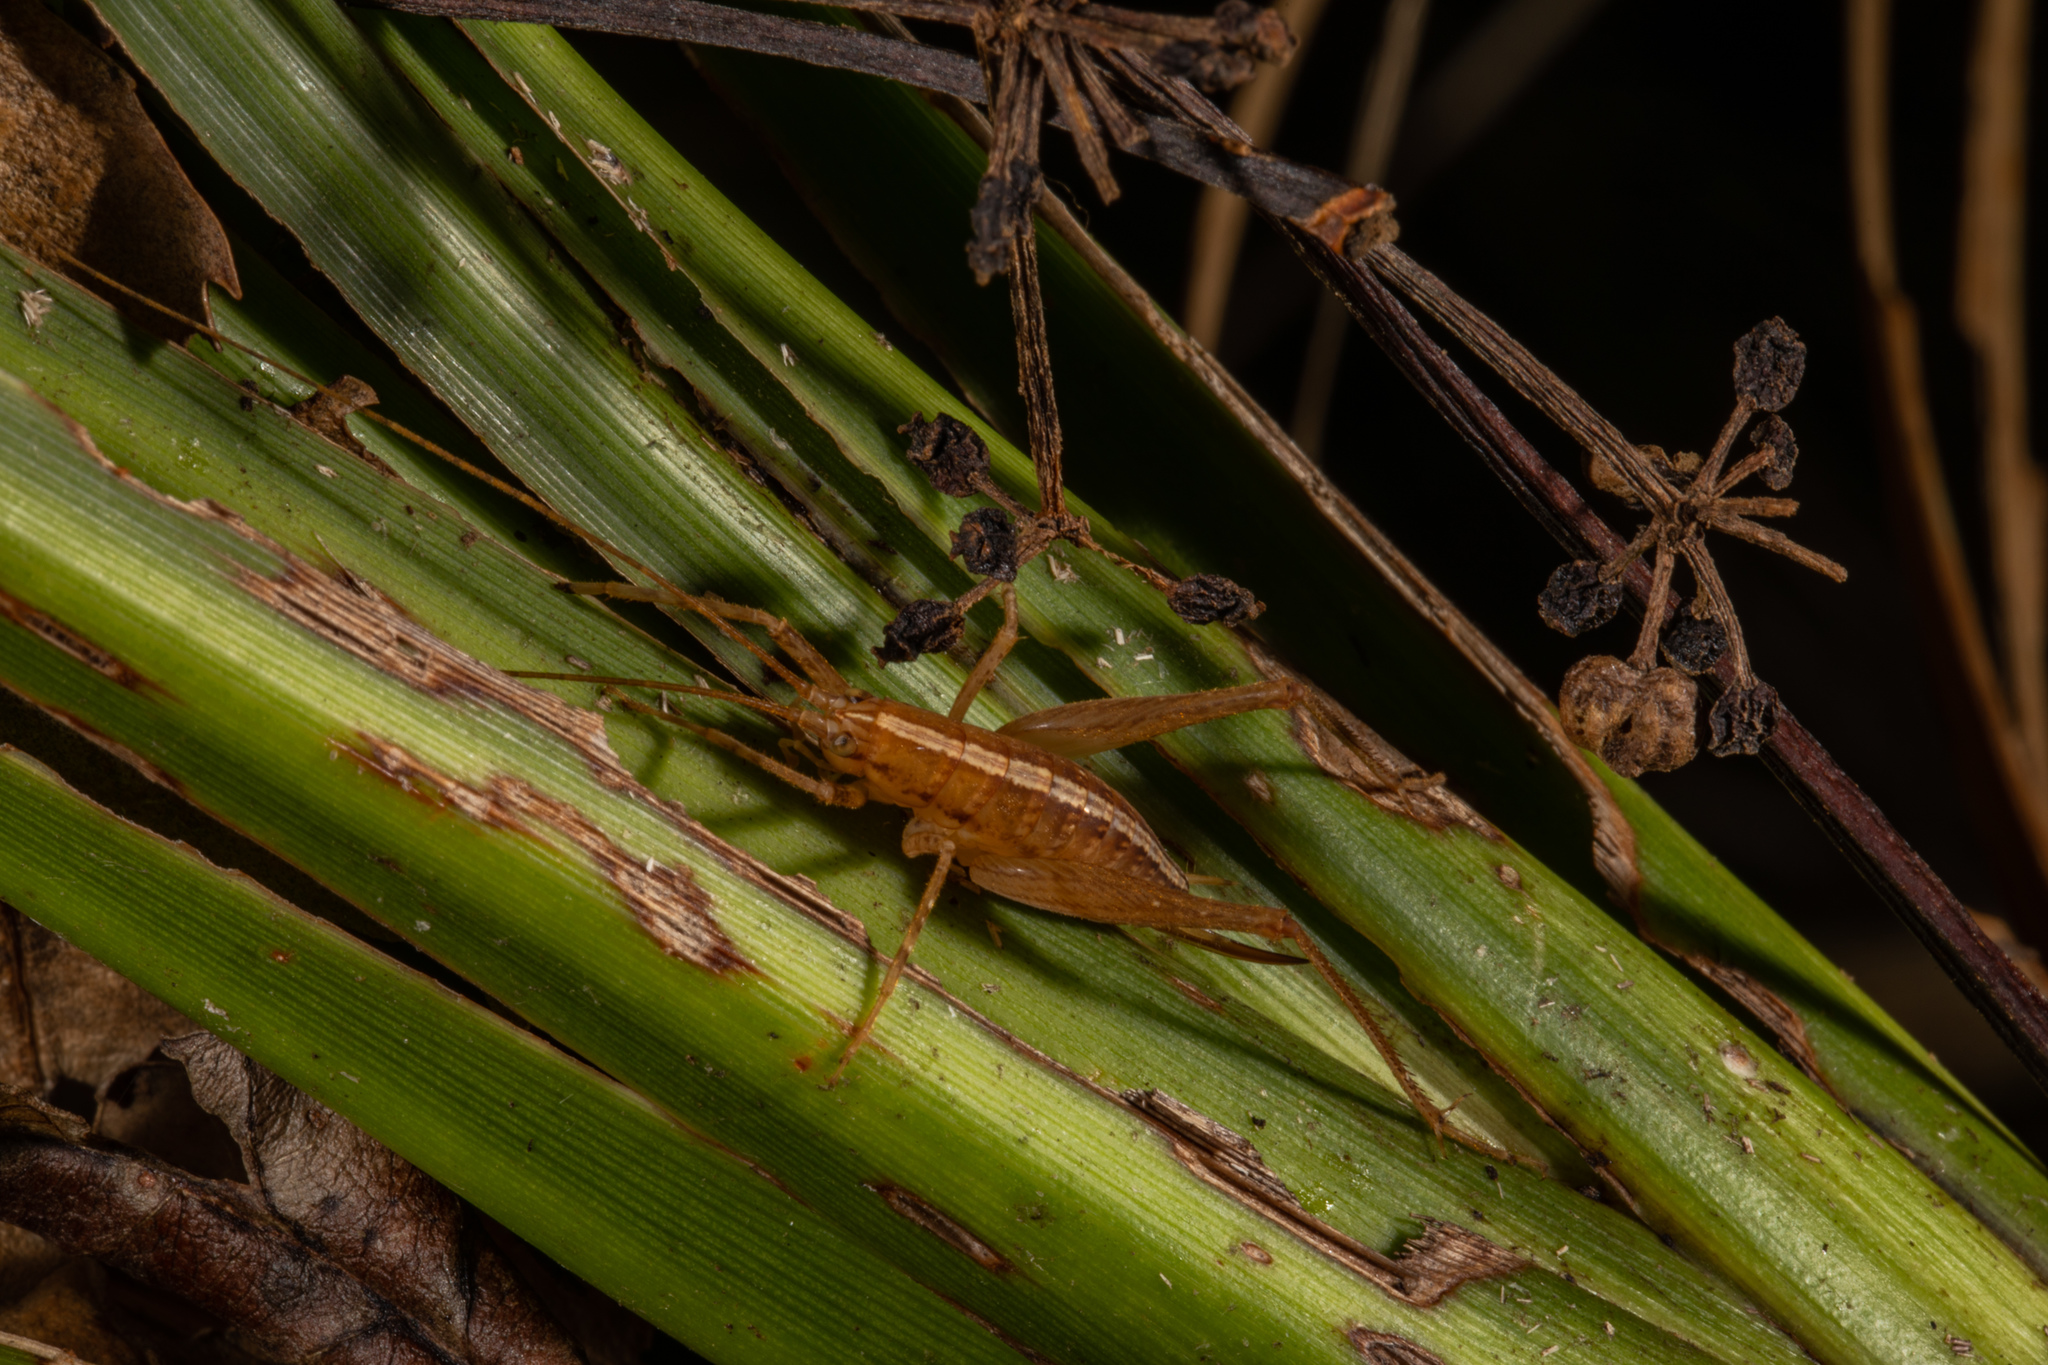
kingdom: Animalia
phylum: Arthropoda
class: Insecta
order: Orthoptera
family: Rhaphidophoridae
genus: Talitropsis
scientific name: Talitropsis poduroides
